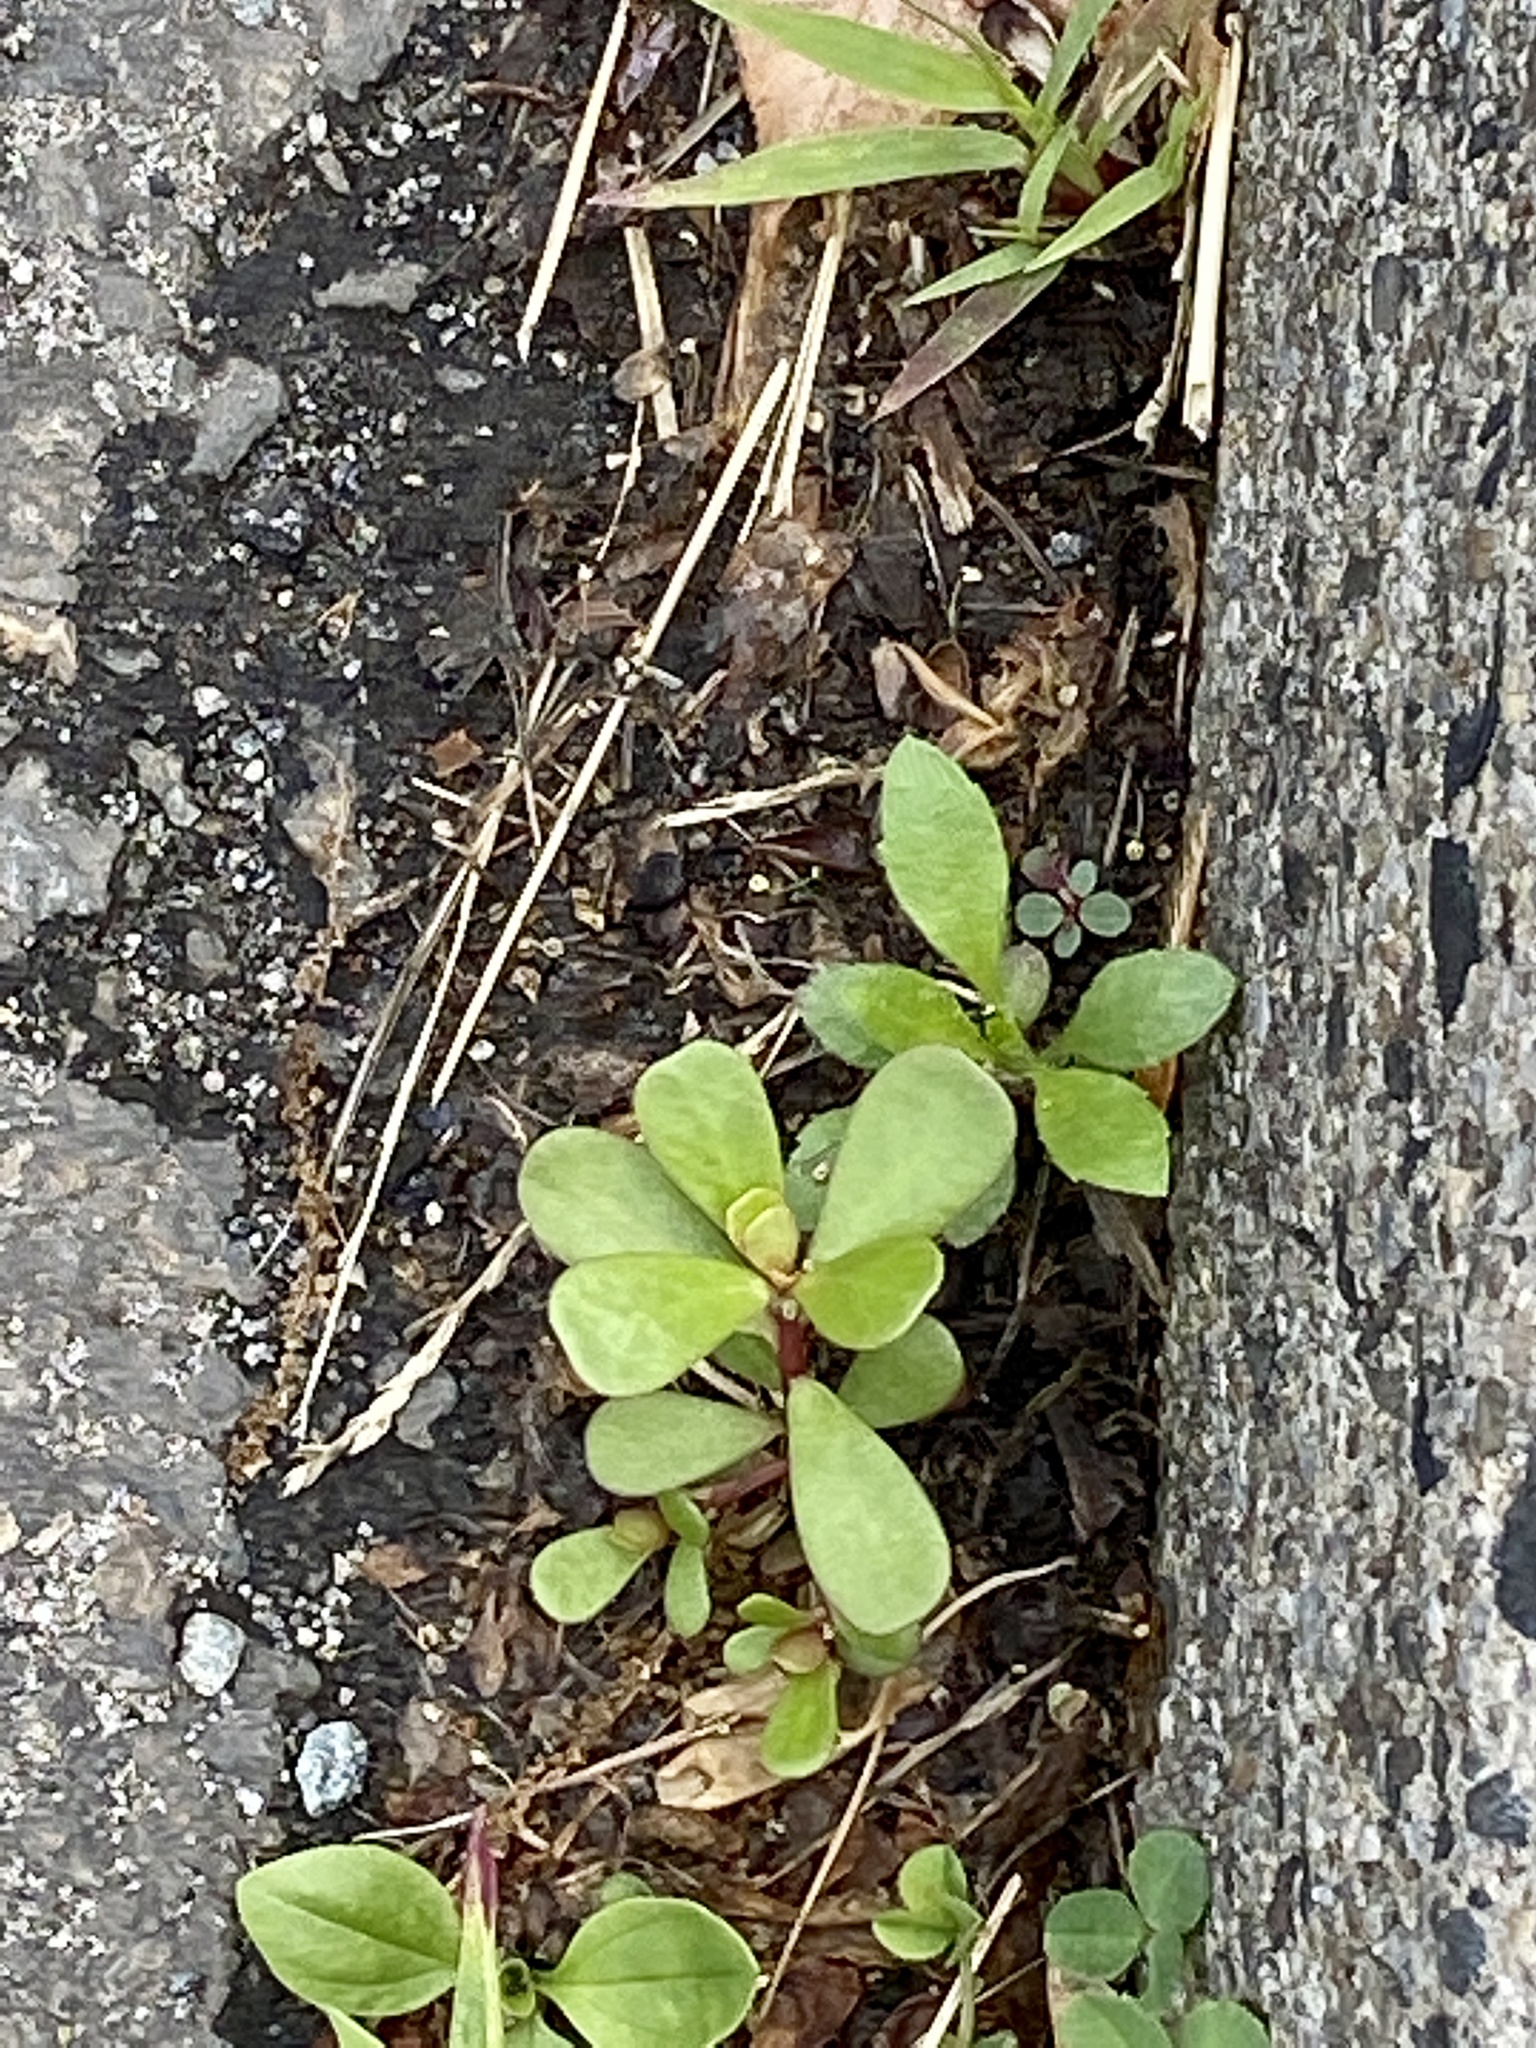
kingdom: Plantae
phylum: Tracheophyta
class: Magnoliopsida
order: Caryophyllales
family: Portulacaceae
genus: Portulaca
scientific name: Portulaca oleracea
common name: Common purslane
